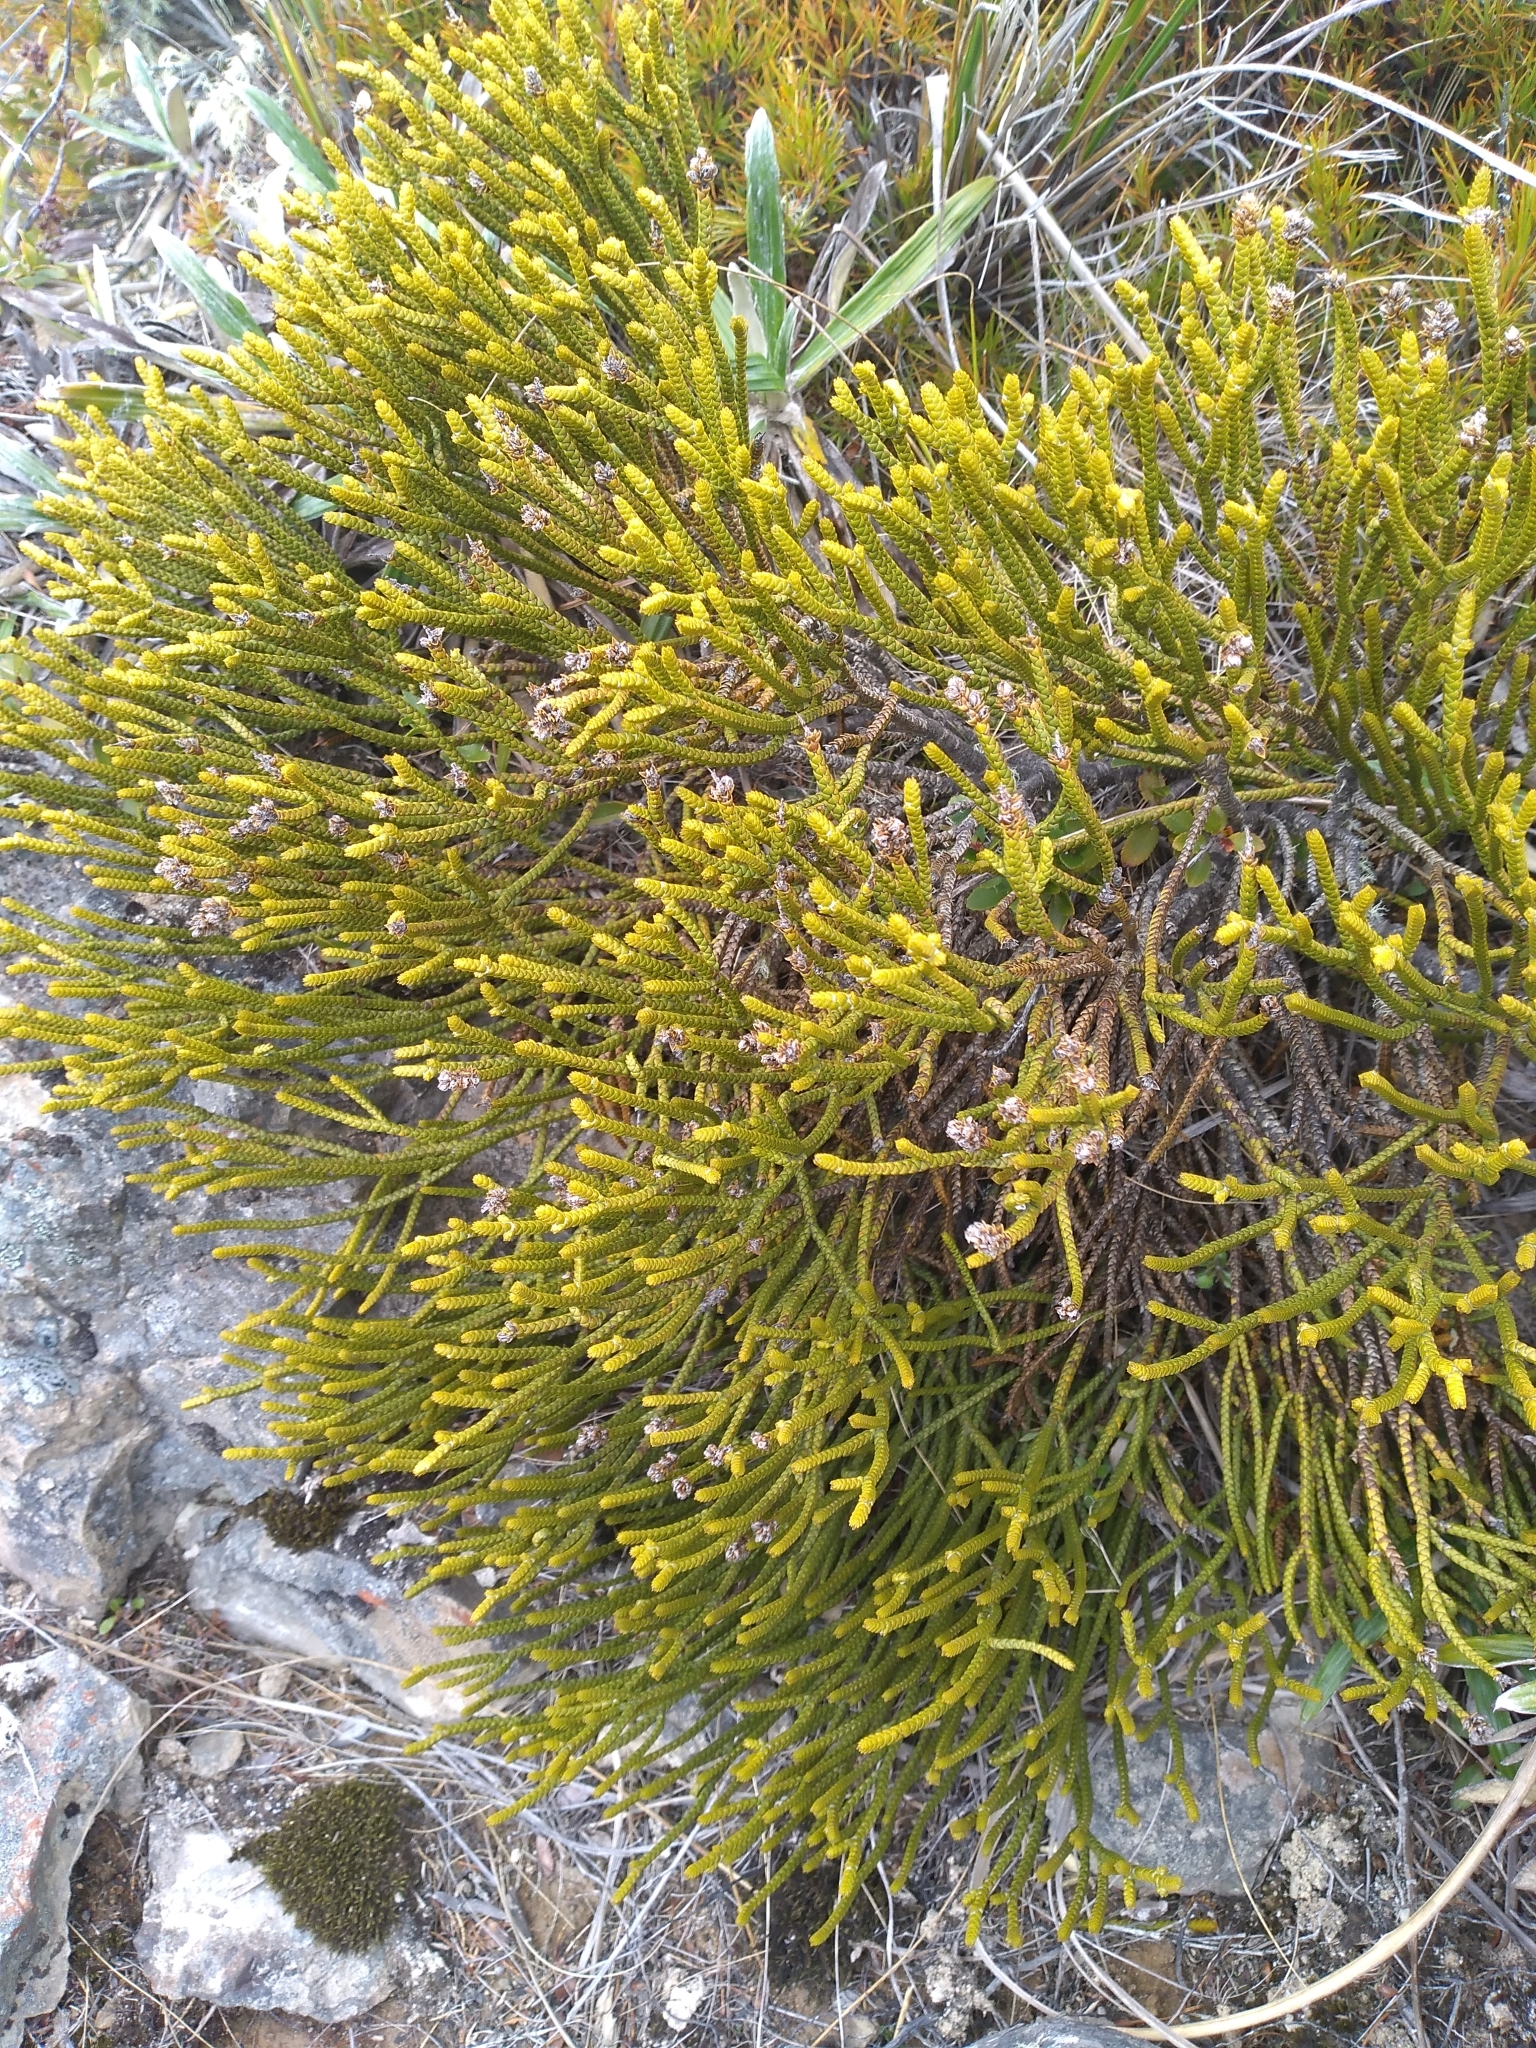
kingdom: Plantae
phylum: Tracheophyta
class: Magnoliopsida
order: Lamiales
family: Plantaginaceae
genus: Veronica
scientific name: Veronica lycopodioides
